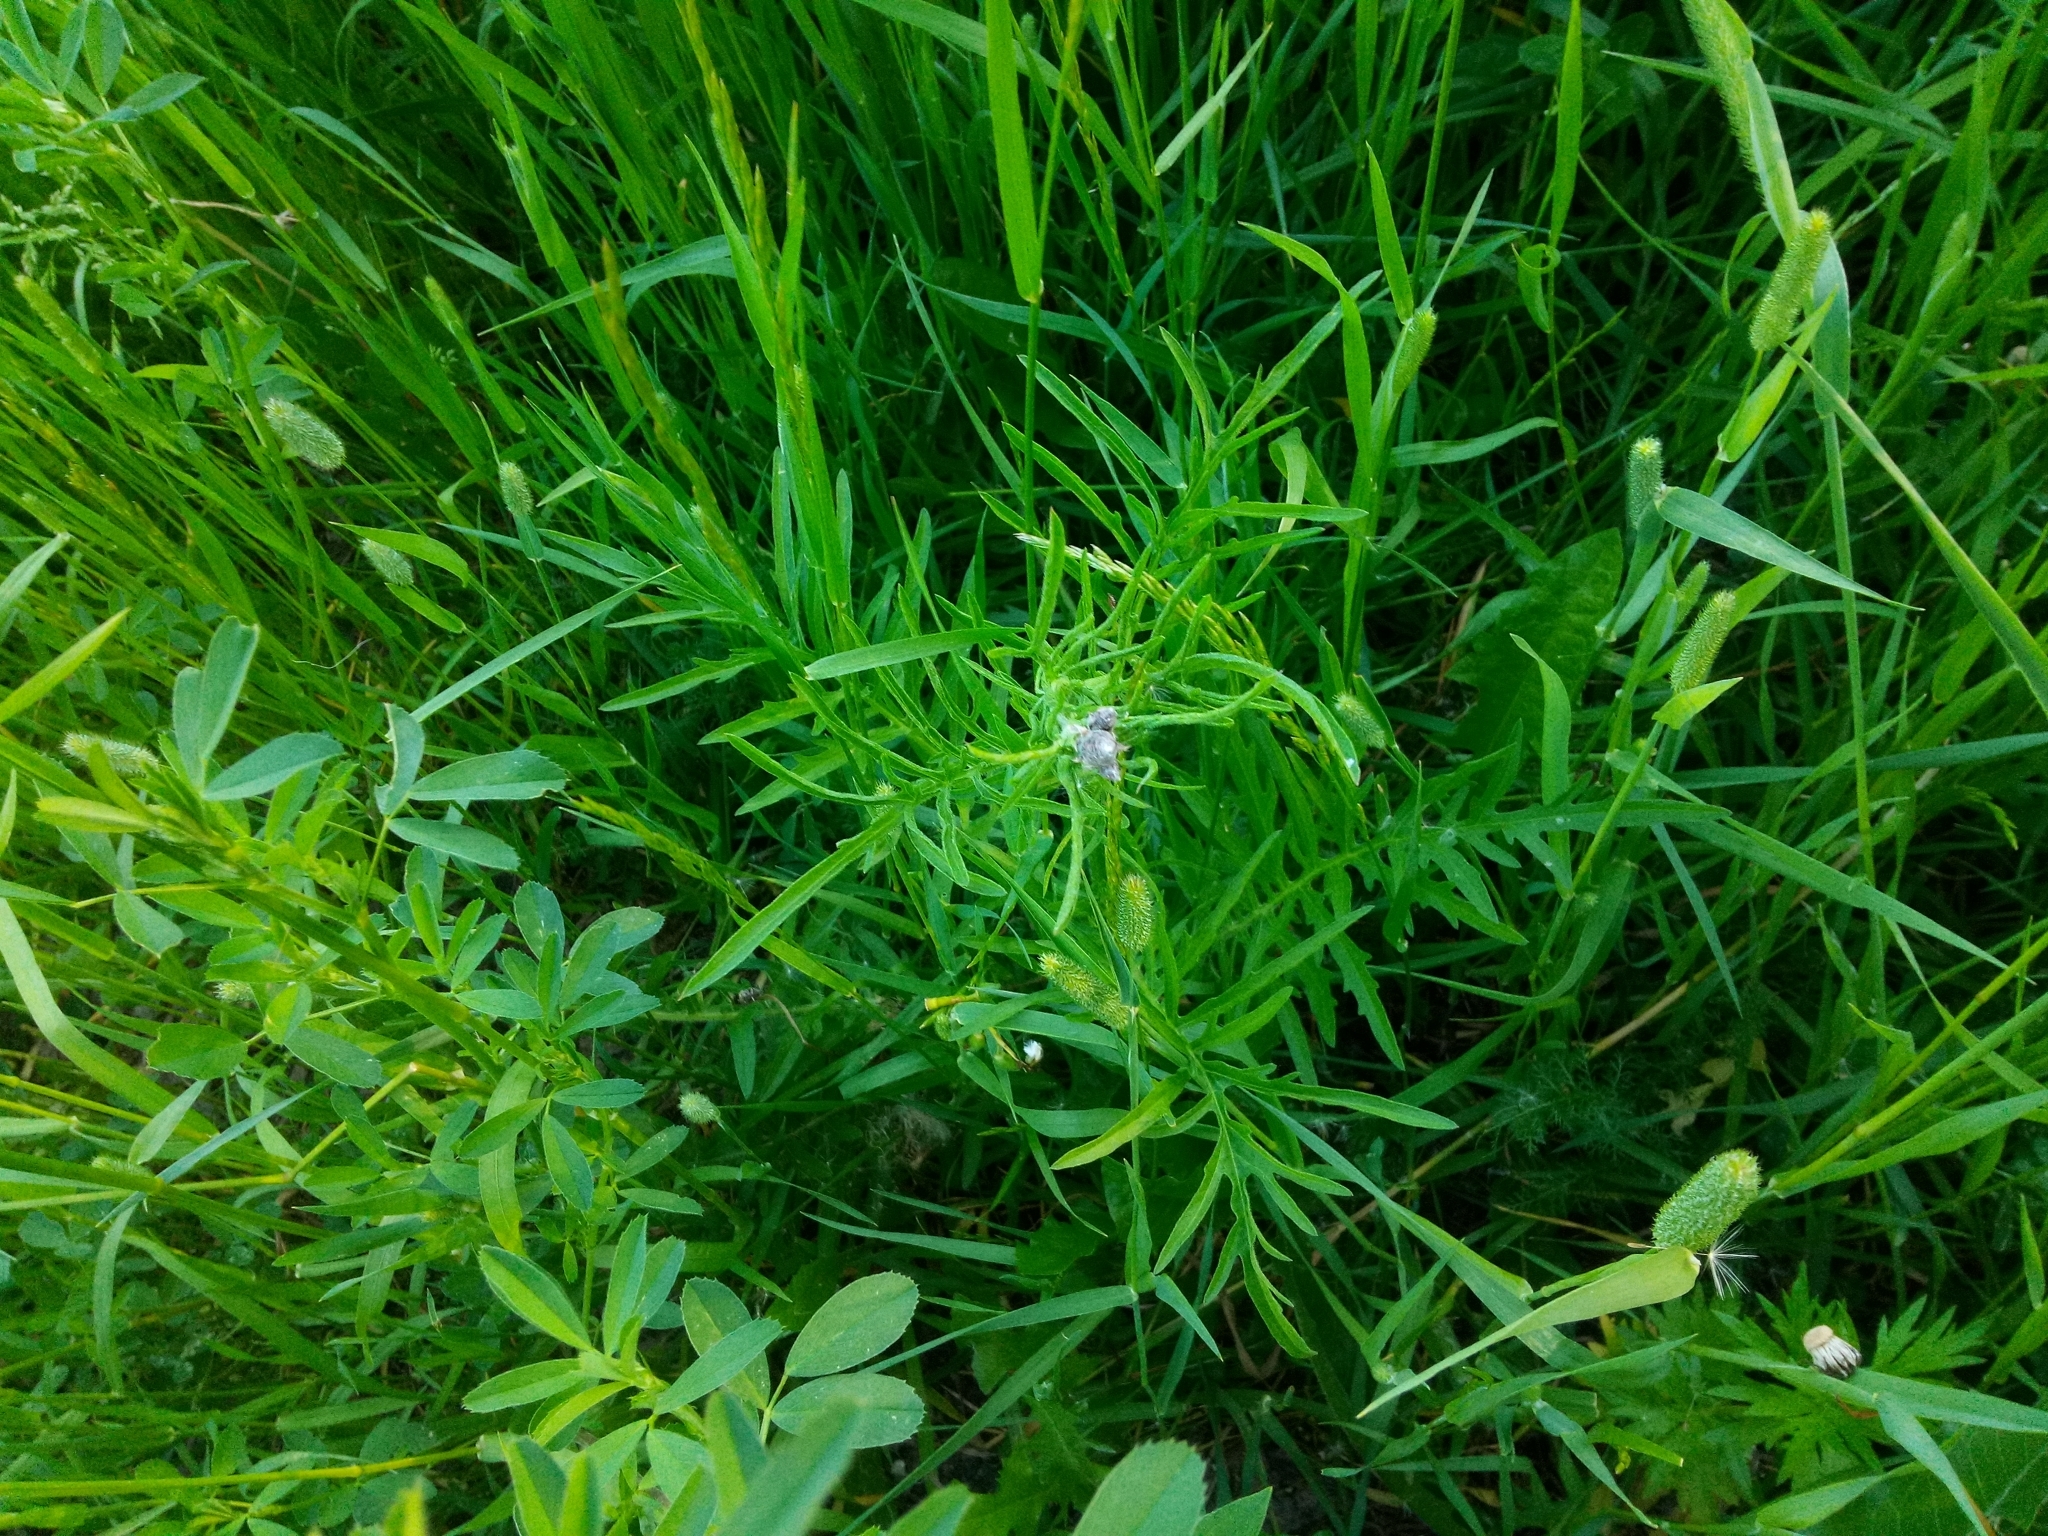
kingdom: Plantae
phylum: Tracheophyta
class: Magnoliopsida
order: Asterales
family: Asteraceae
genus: Centaurea
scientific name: Centaurea scabiosa
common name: Greater knapweed
